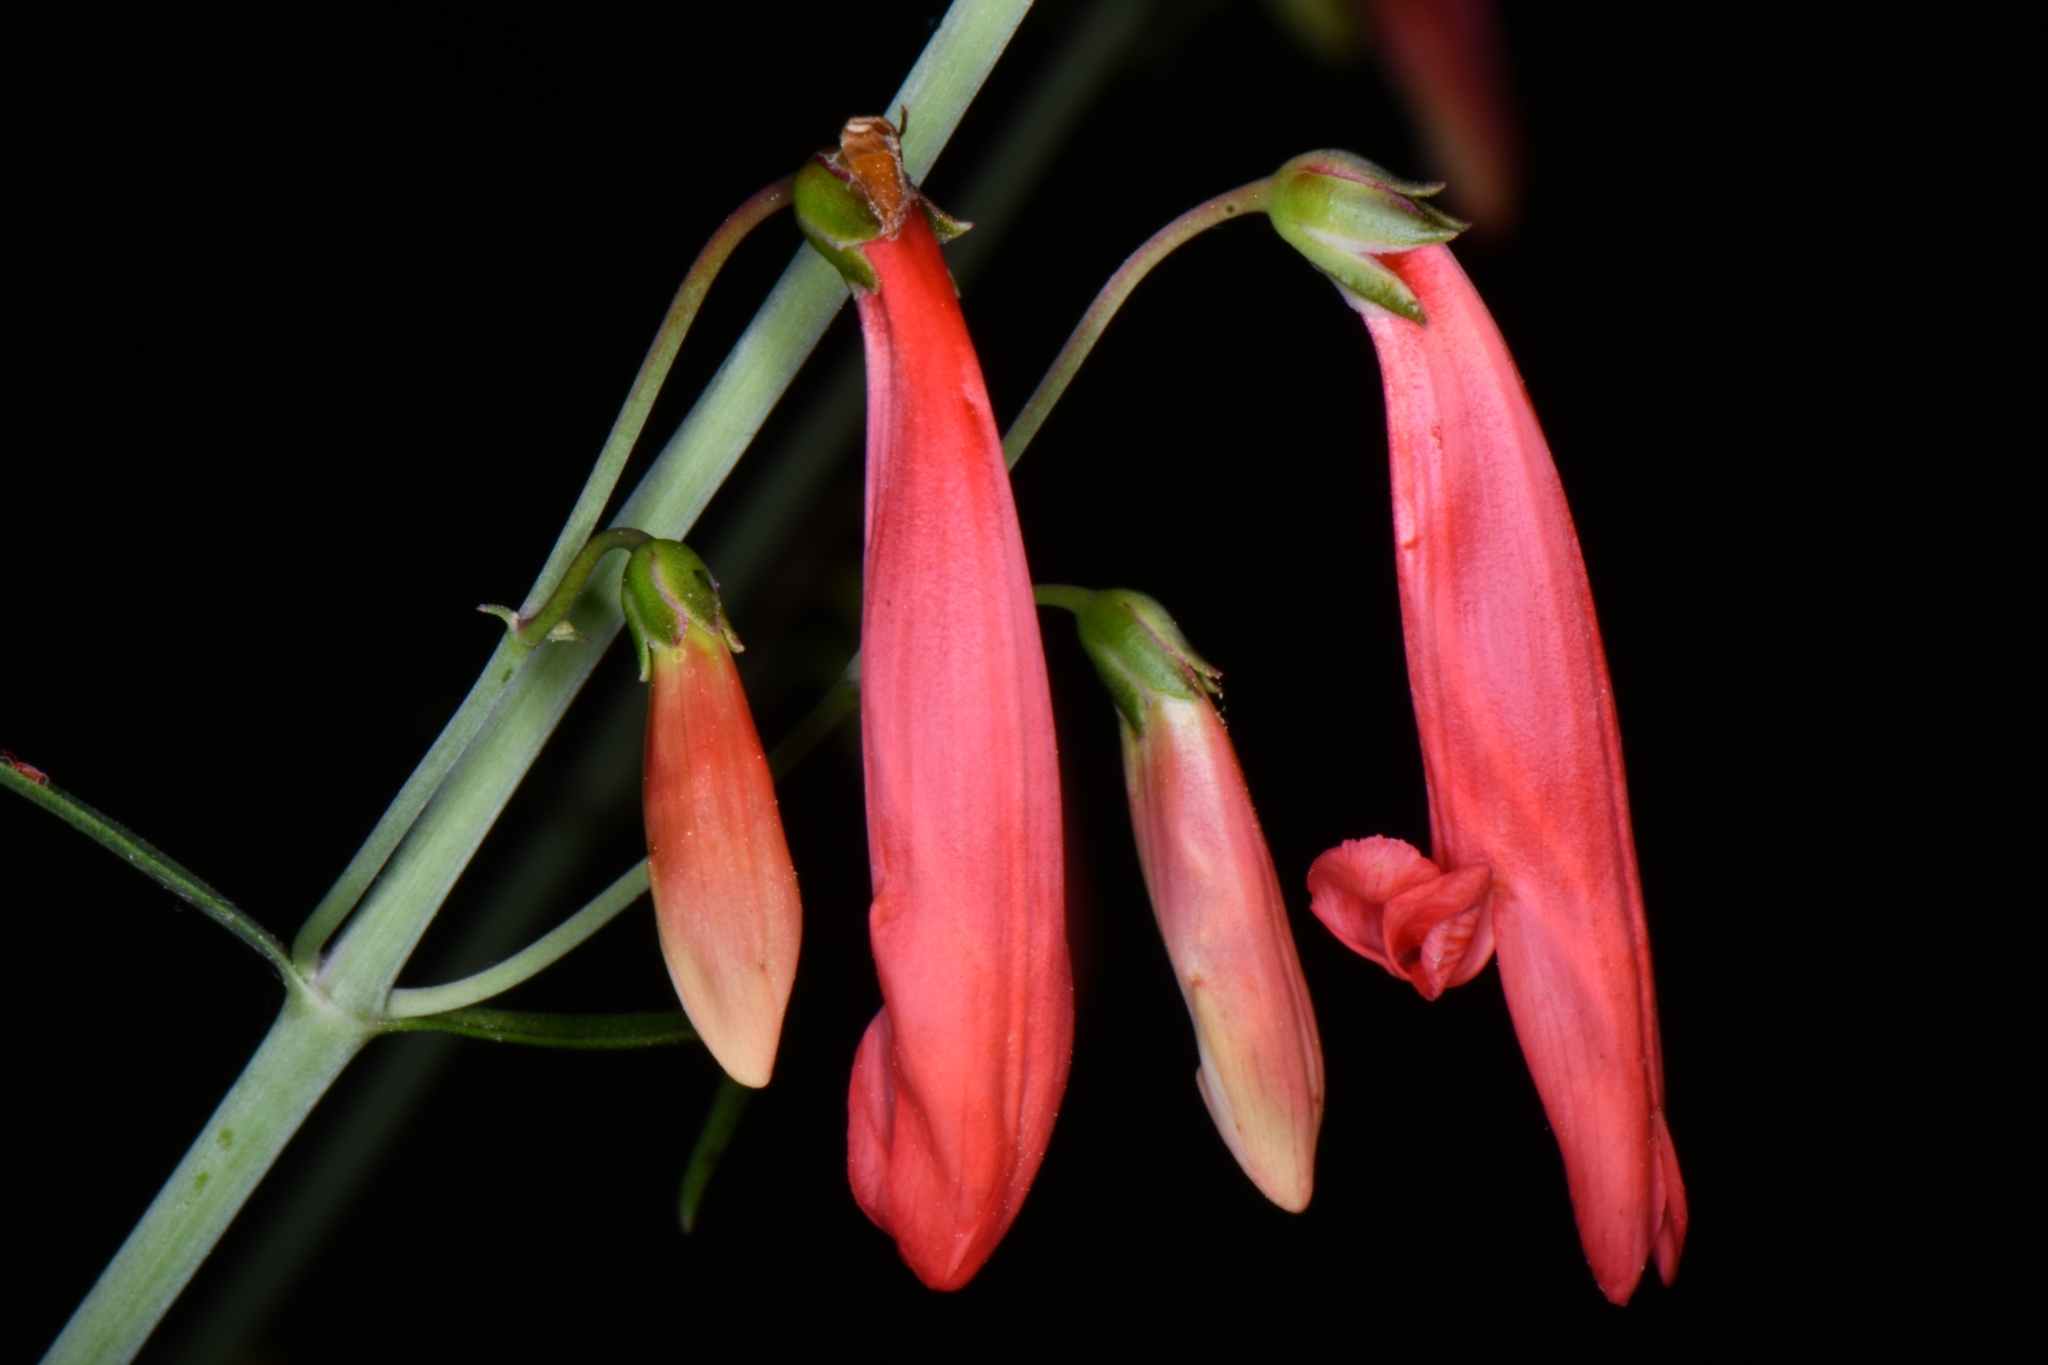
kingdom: Plantae
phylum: Tracheophyta
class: Magnoliopsida
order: Lamiales
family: Plantaginaceae
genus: Penstemon
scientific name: Penstemon barbatus
